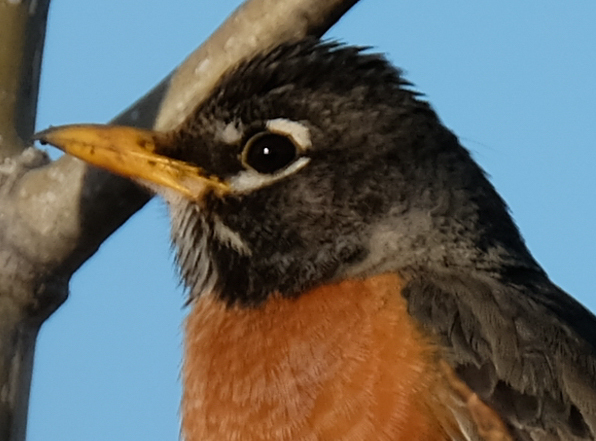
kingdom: Animalia
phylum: Chordata
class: Aves
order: Passeriformes
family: Turdidae
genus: Turdus
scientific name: Turdus migratorius
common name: American robin
